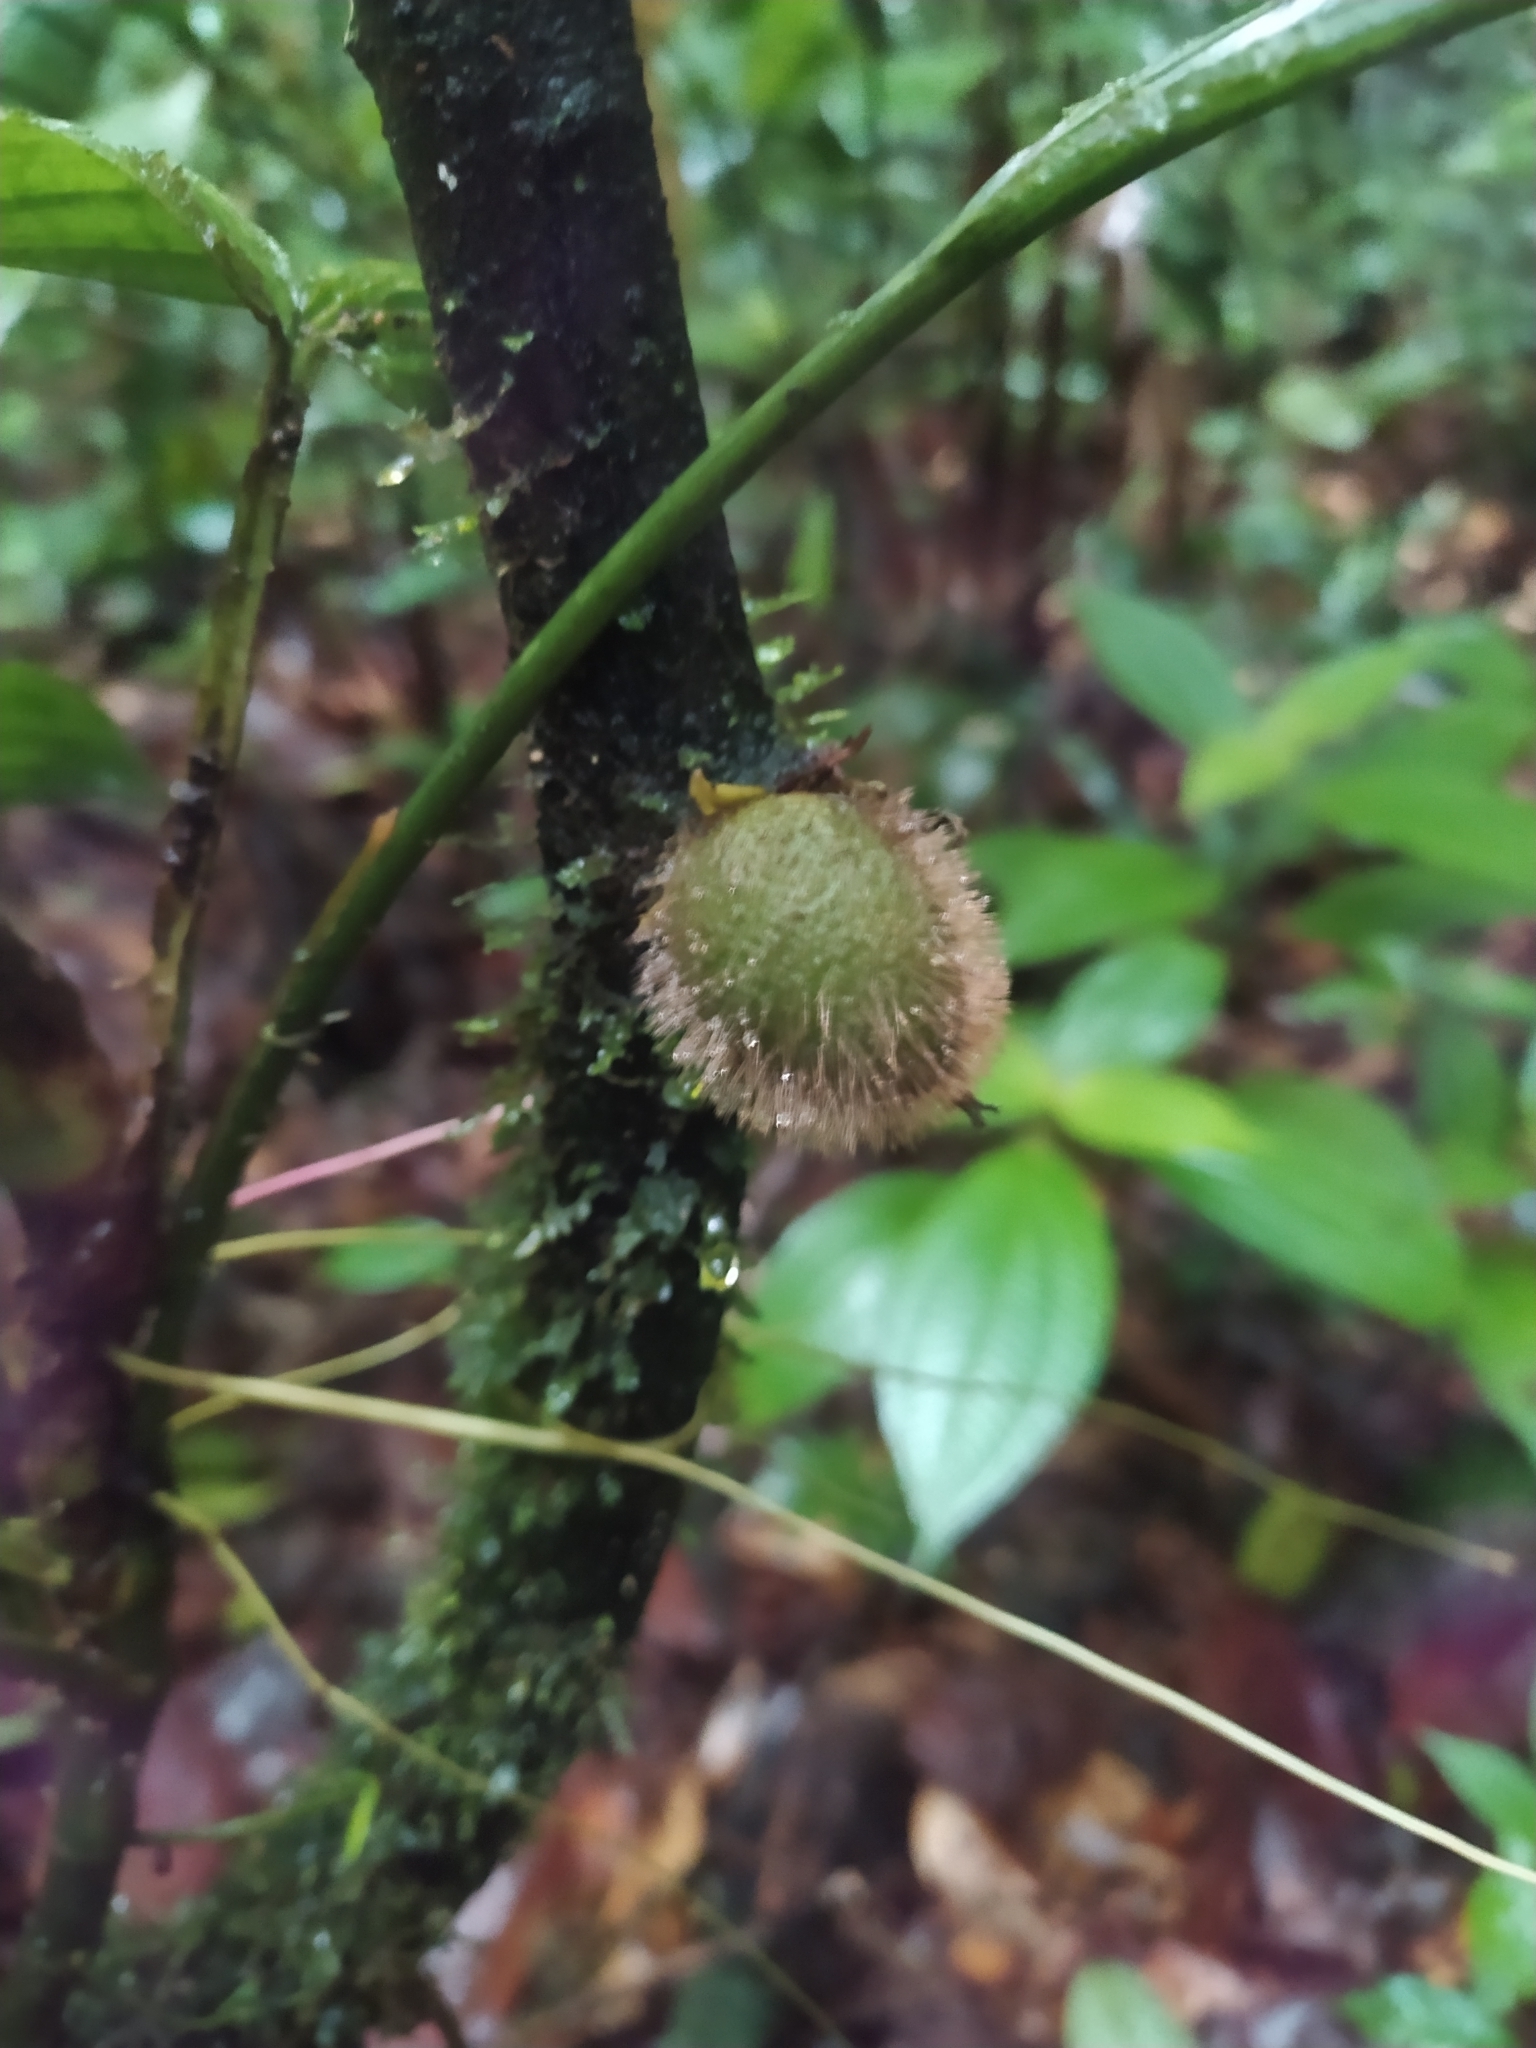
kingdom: Plantae
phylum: Tracheophyta
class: Magnoliopsida
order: Ericales
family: Ebenaceae
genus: Diospyros
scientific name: Diospyros ropourea
